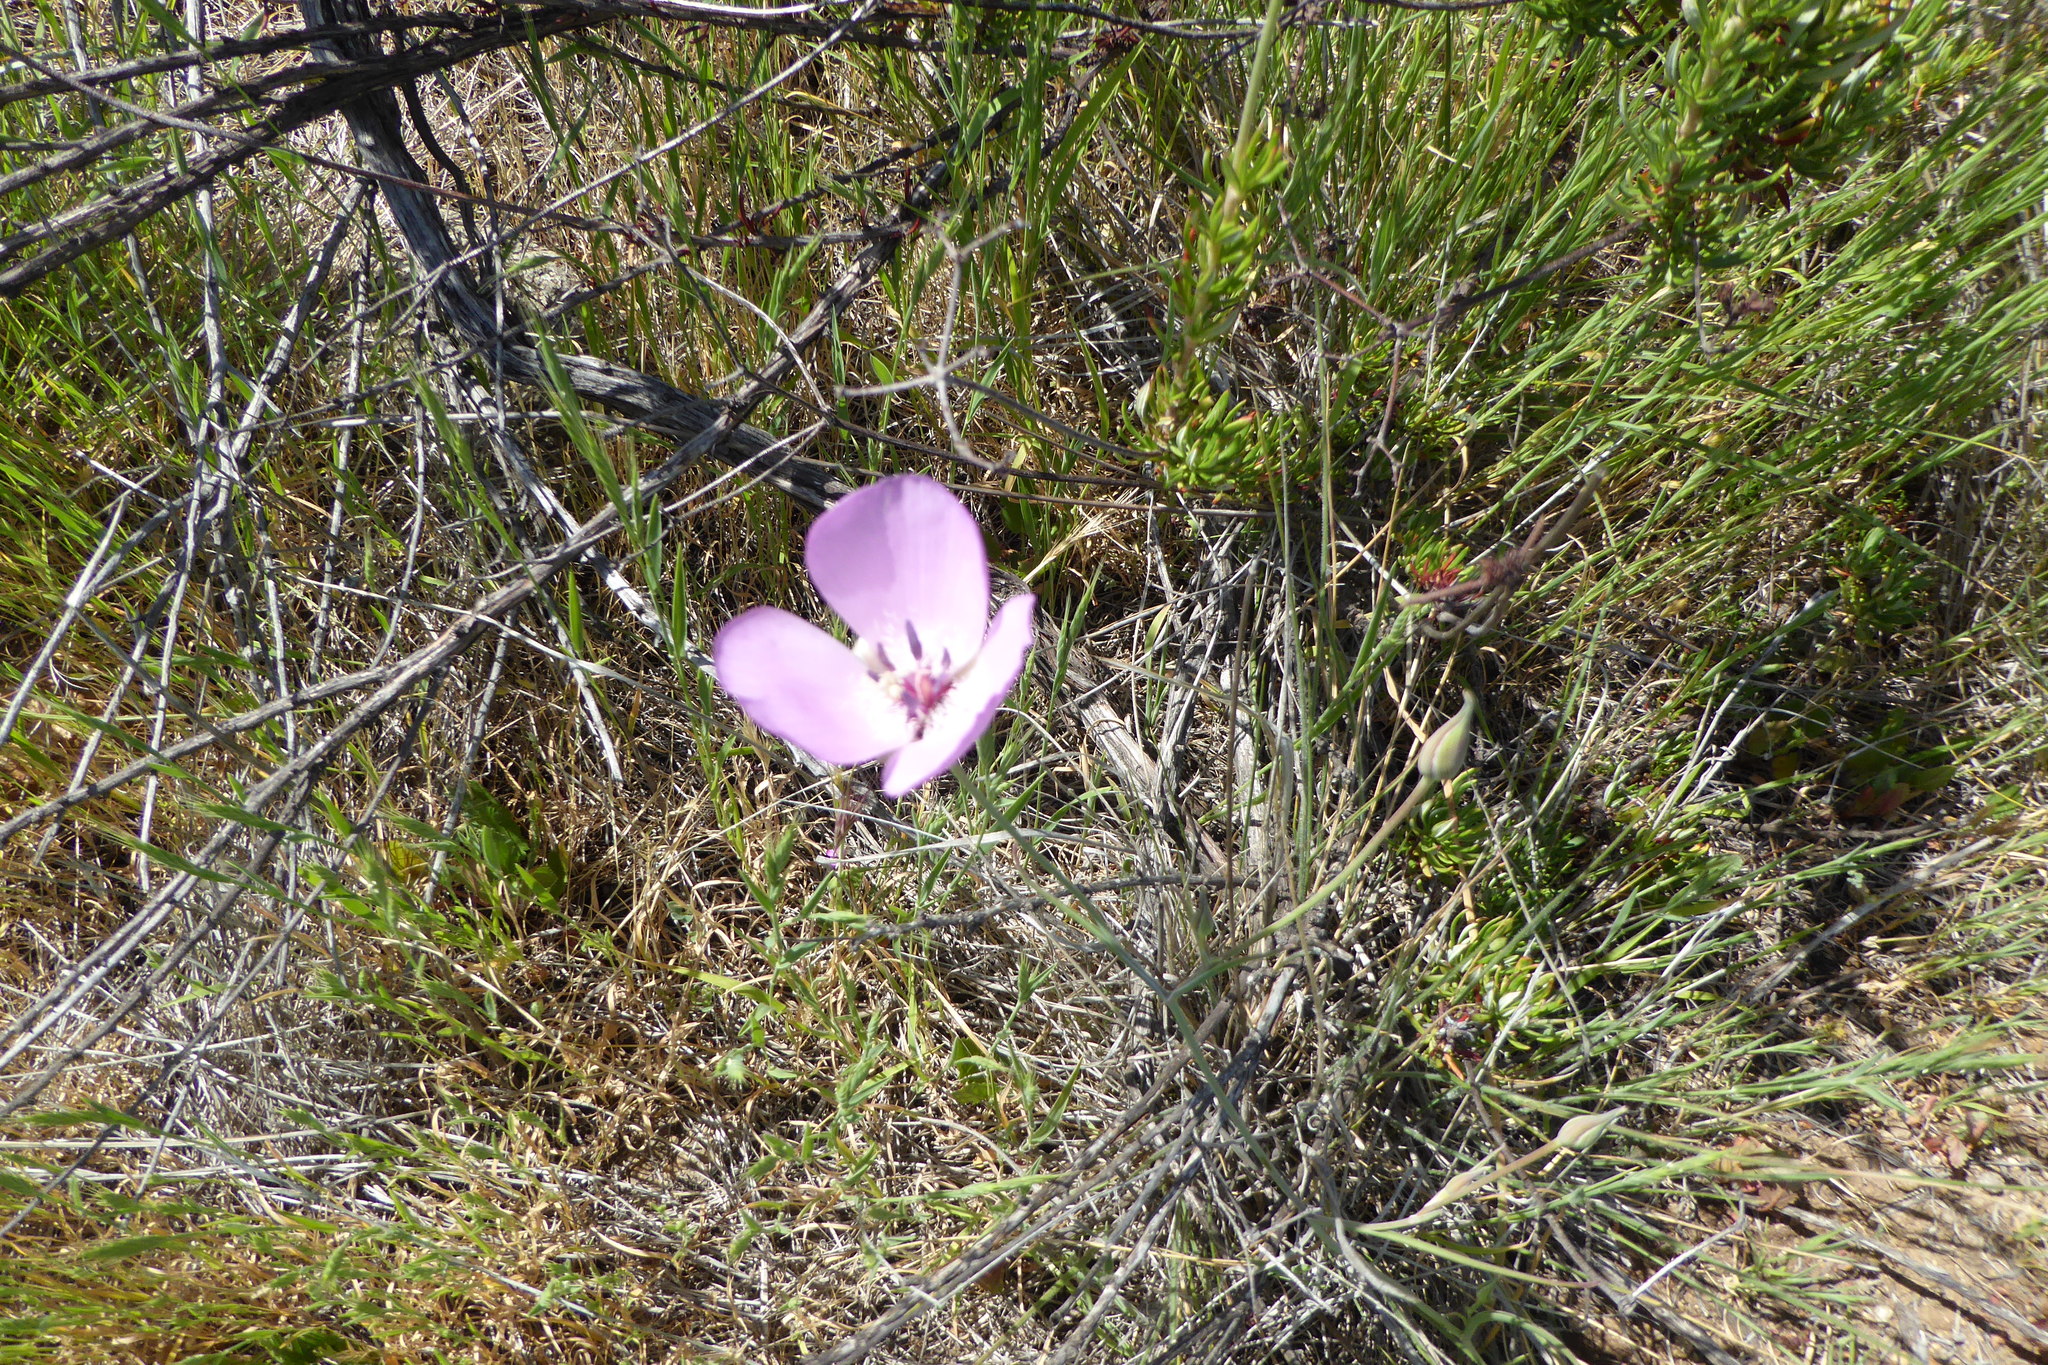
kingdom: Plantae
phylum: Tracheophyta
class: Liliopsida
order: Liliales
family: Liliaceae
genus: Calochortus
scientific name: Calochortus splendens
